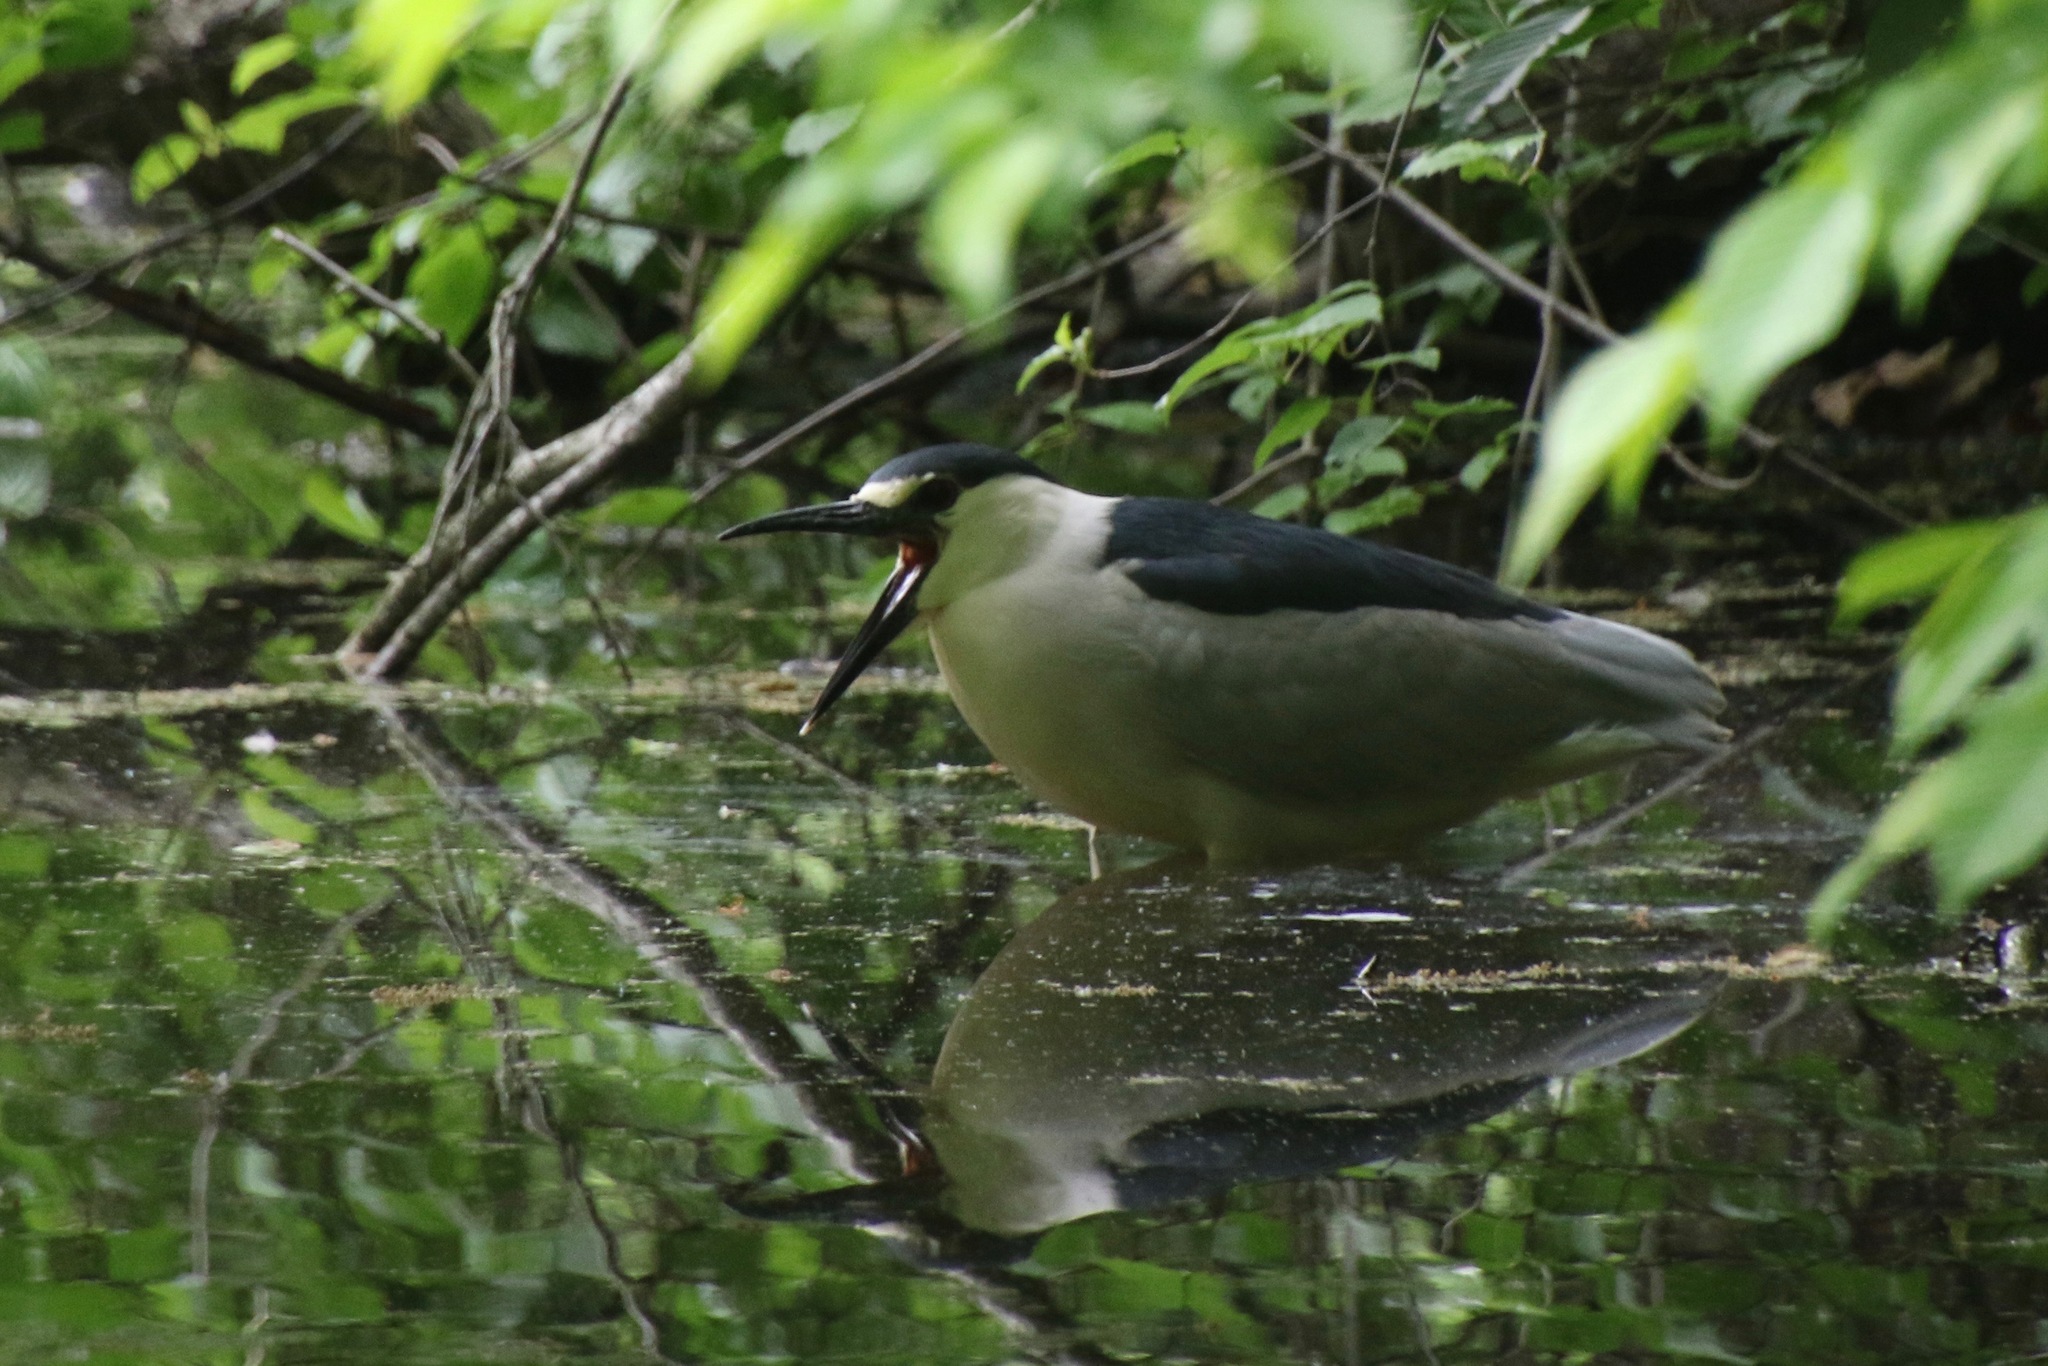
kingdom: Animalia
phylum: Chordata
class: Aves
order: Pelecaniformes
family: Ardeidae
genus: Nycticorax
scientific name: Nycticorax nycticorax
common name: Black-crowned night heron
